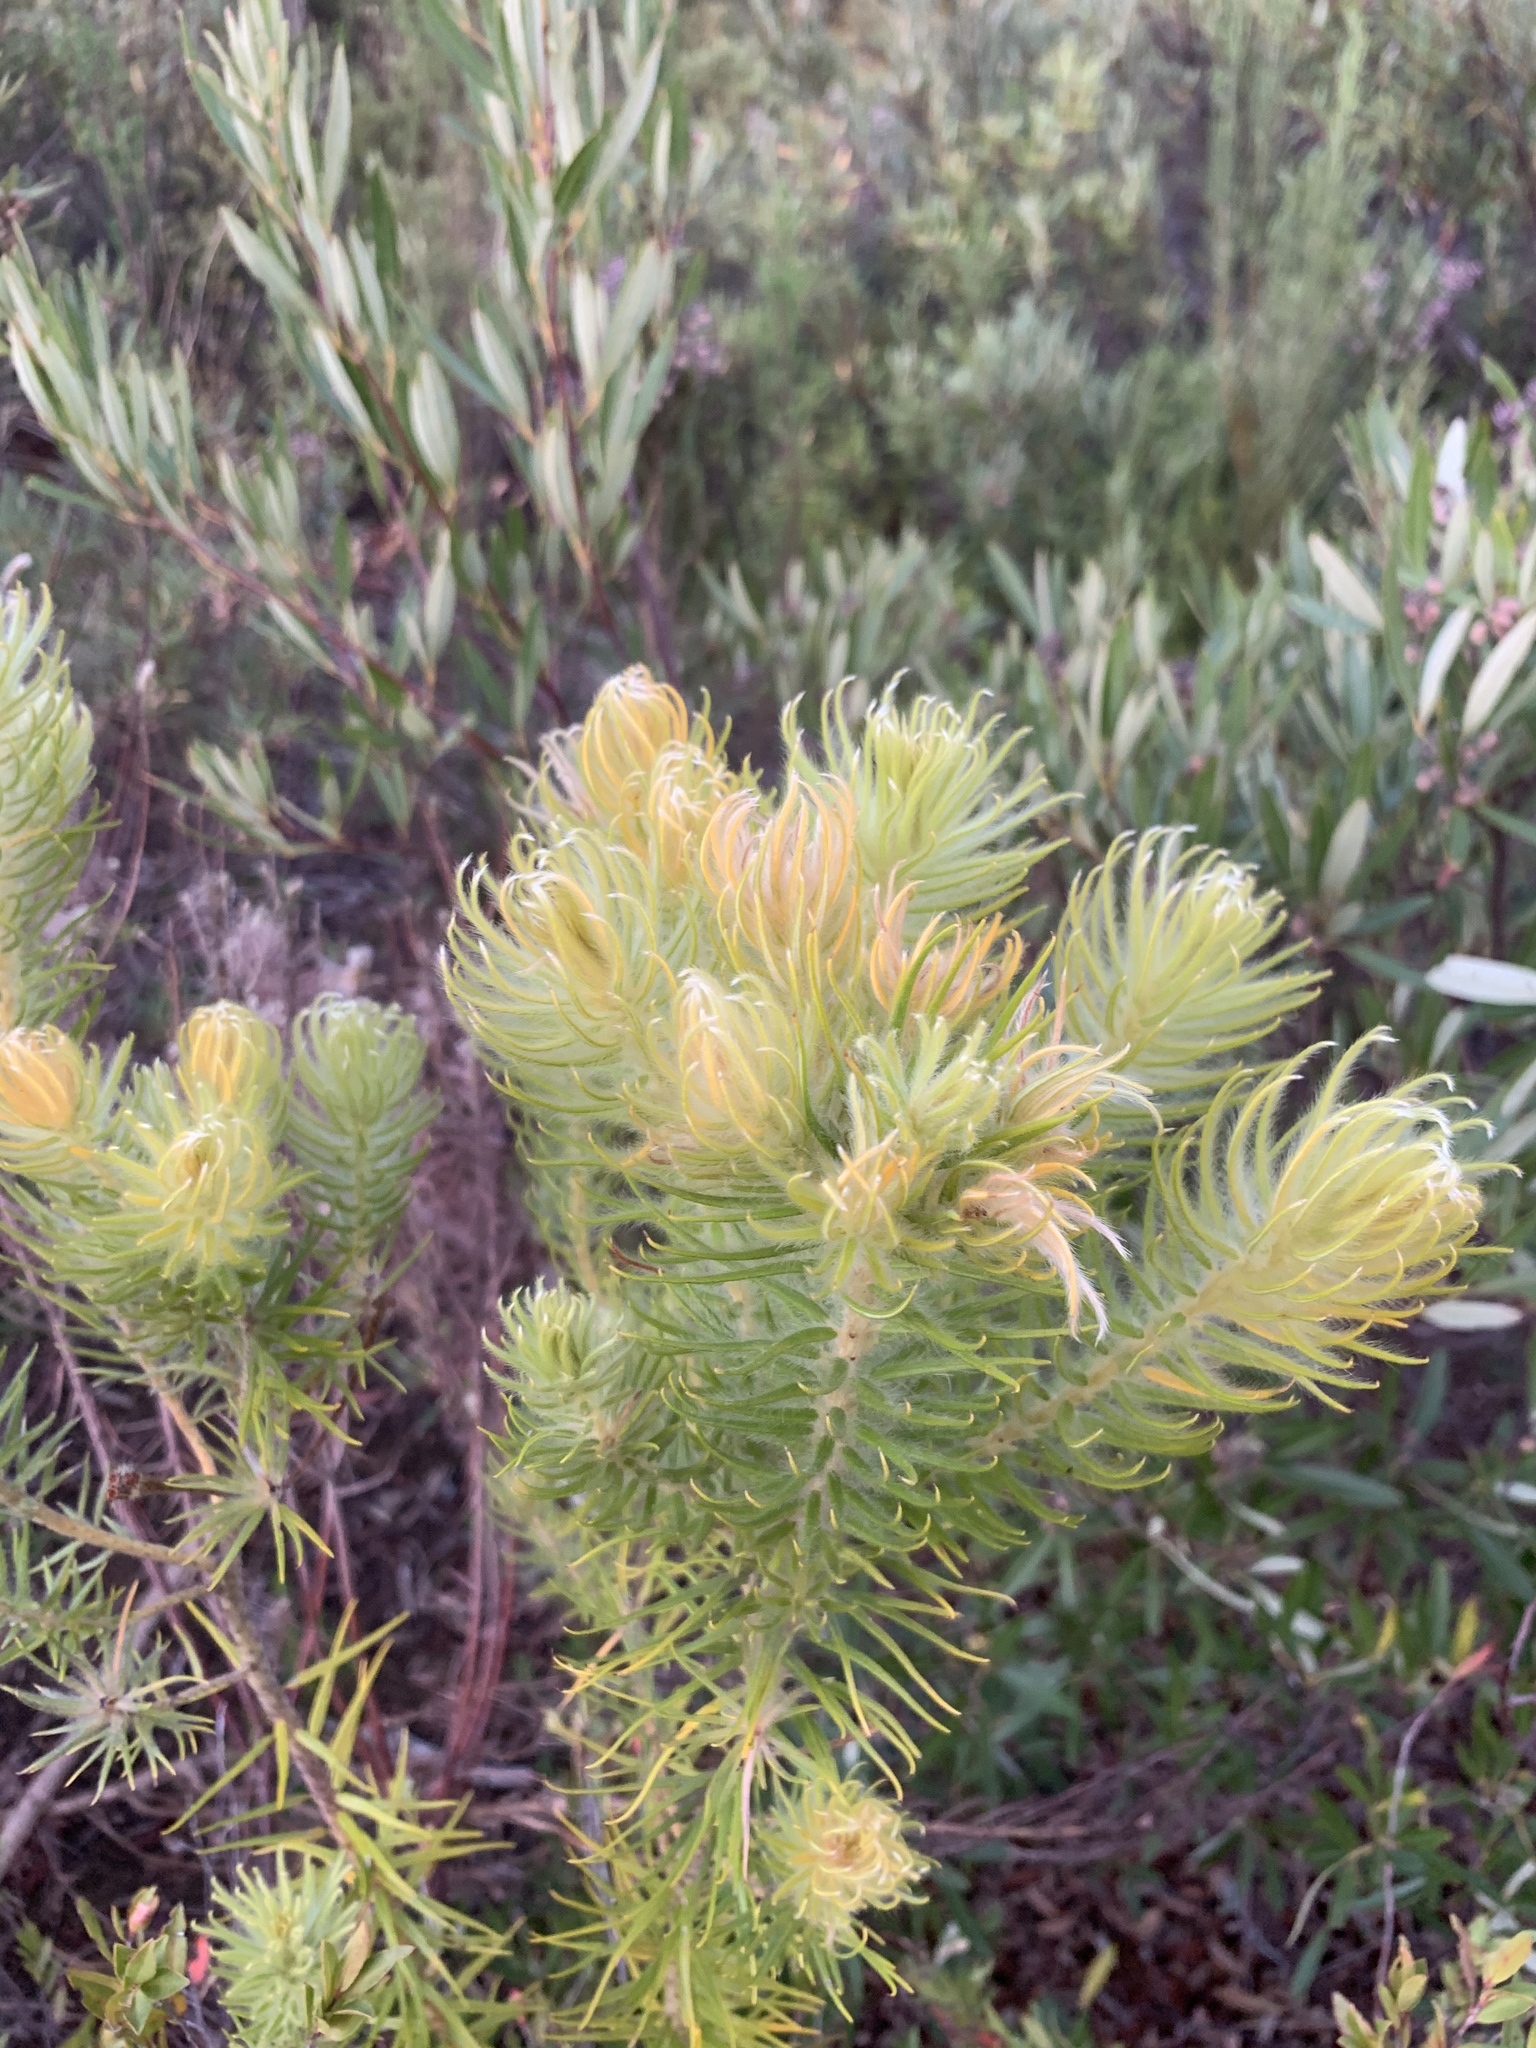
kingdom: Plantae
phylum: Tracheophyta
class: Magnoliopsida
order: Rosales
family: Rhamnaceae
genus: Phylica
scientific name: Phylica pubescens
